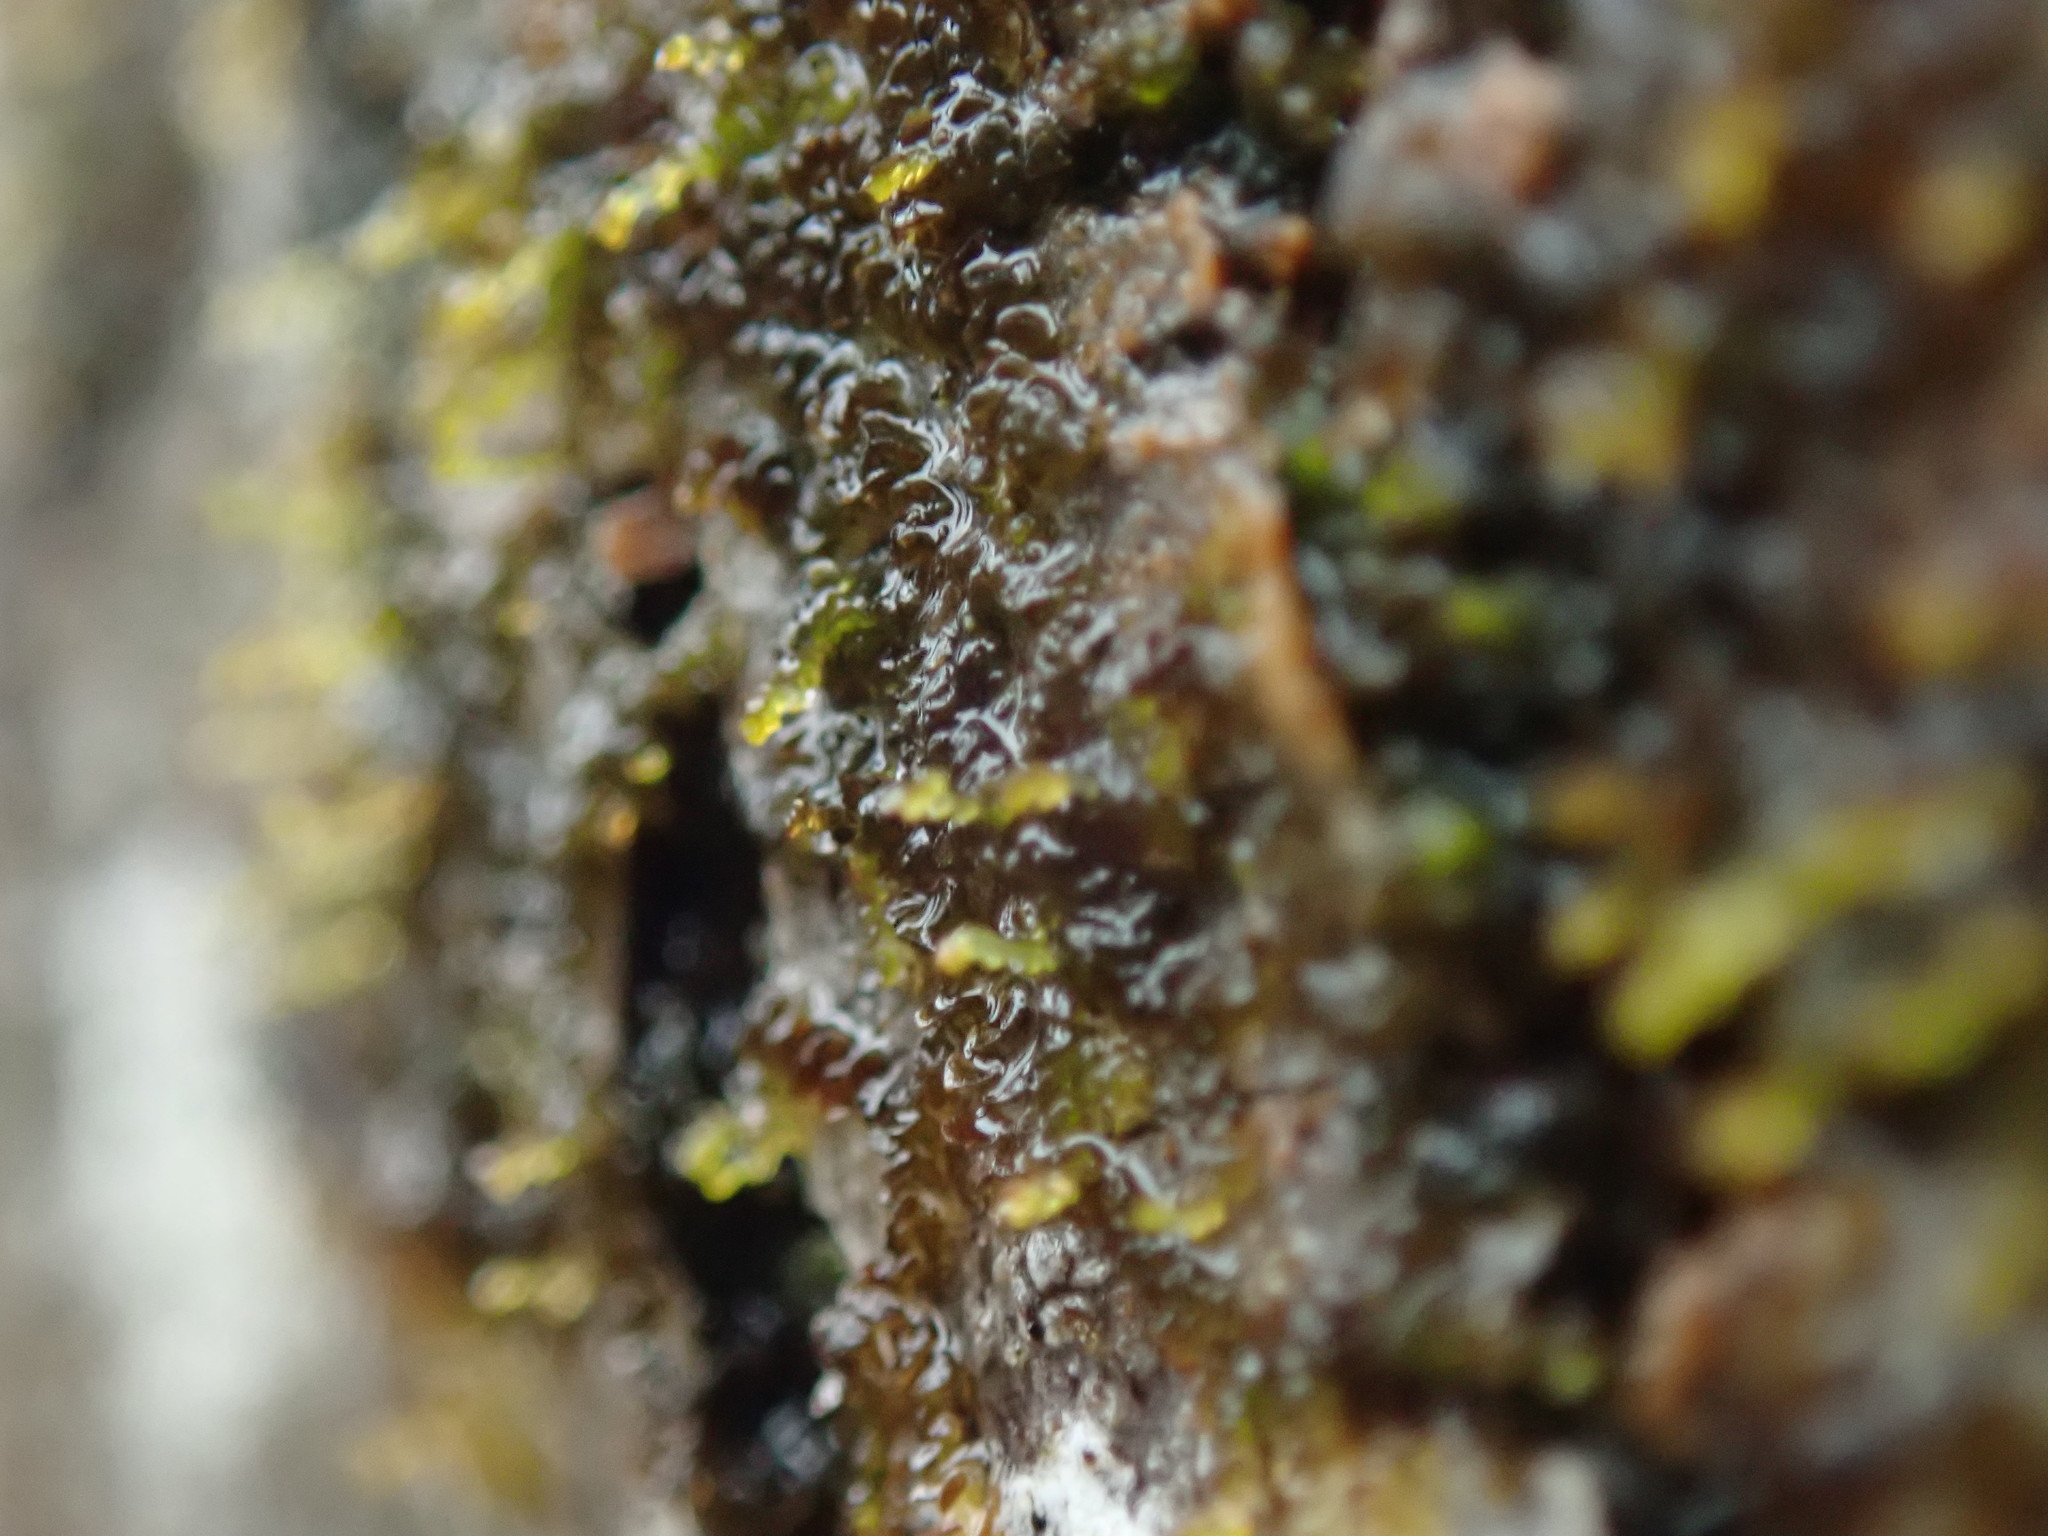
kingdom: Plantae
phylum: Marchantiophyta
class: Jungermanniopsida
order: Porellales
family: Frullaniaceae
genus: Frullania
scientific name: Frullania bolanderi
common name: Bolander s scalewort
